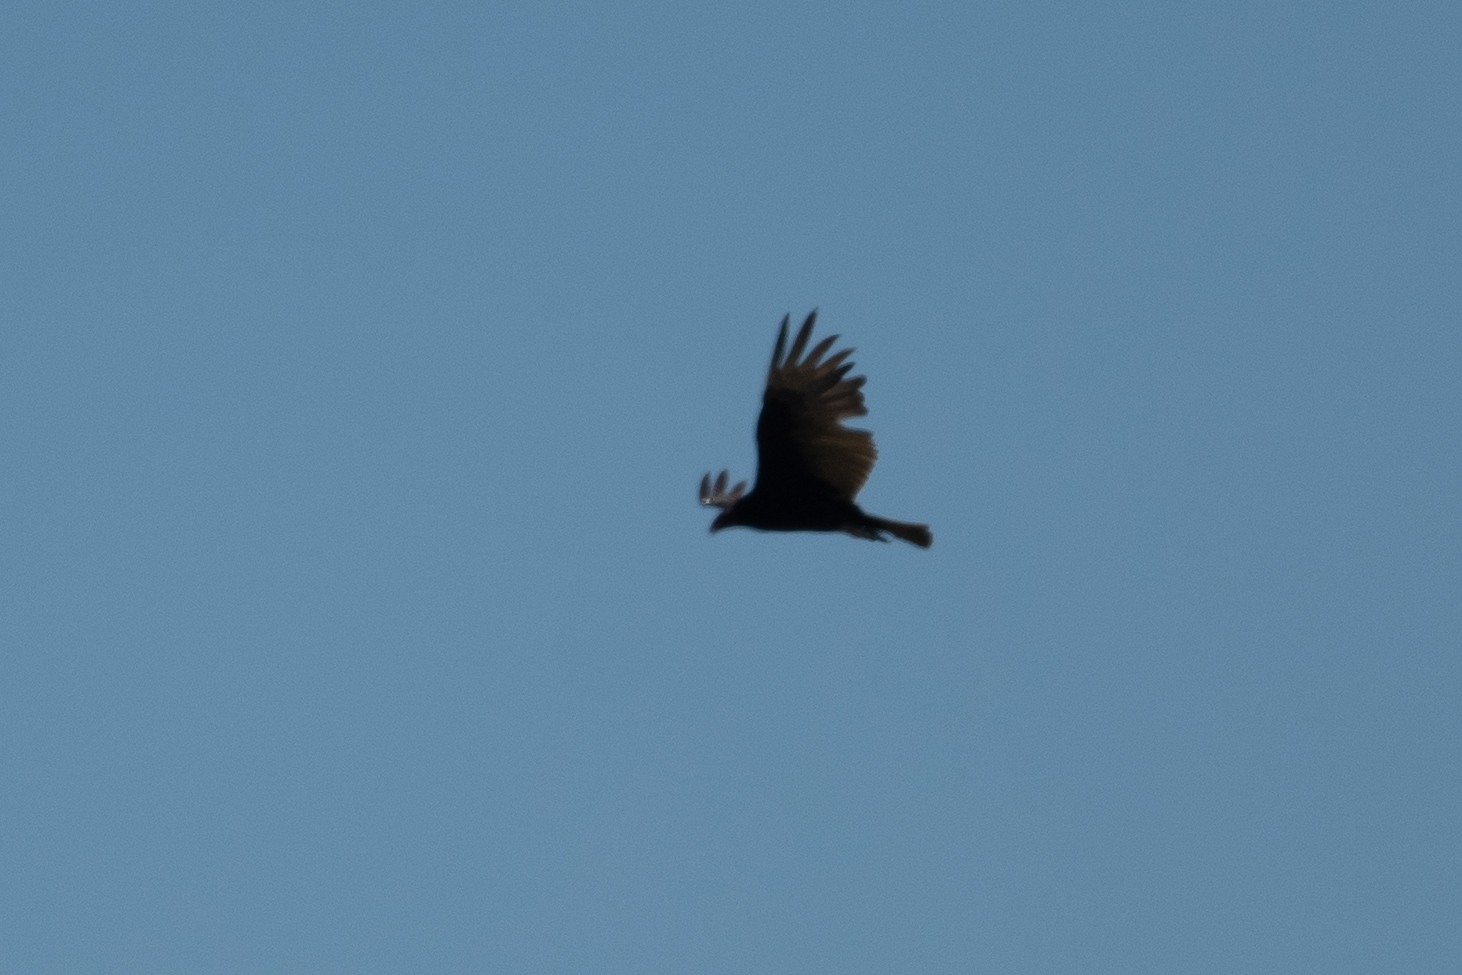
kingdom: Animalia
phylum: Chordata
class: Aves
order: Accipitriformes
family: Cathartidae
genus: Cathartes
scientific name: Cathartes aura
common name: Turkey vulture
